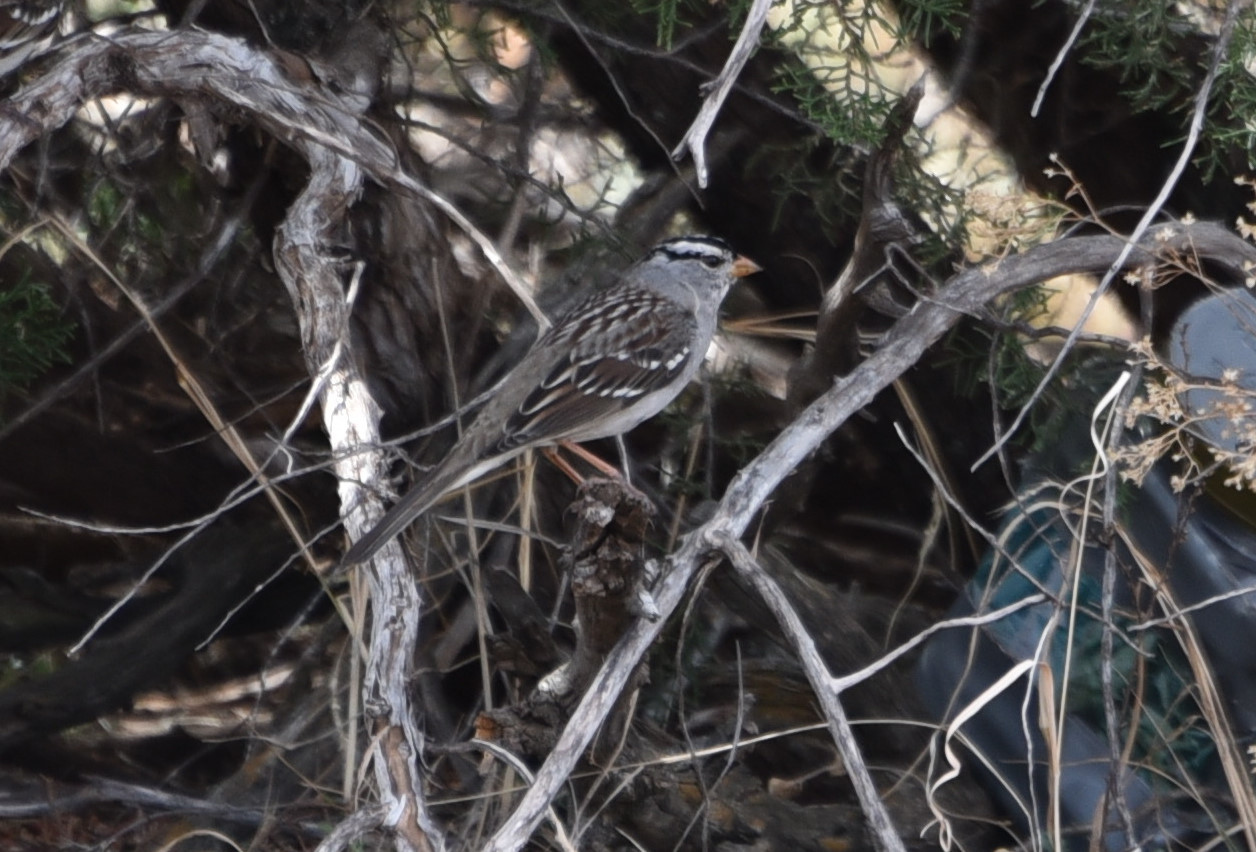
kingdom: Animalia
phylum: Chordata
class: Aves
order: Passeriformes
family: Passerellidae
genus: Zonotrichia
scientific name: Zonotrichia leucophrys
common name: White-crowned sparrow
